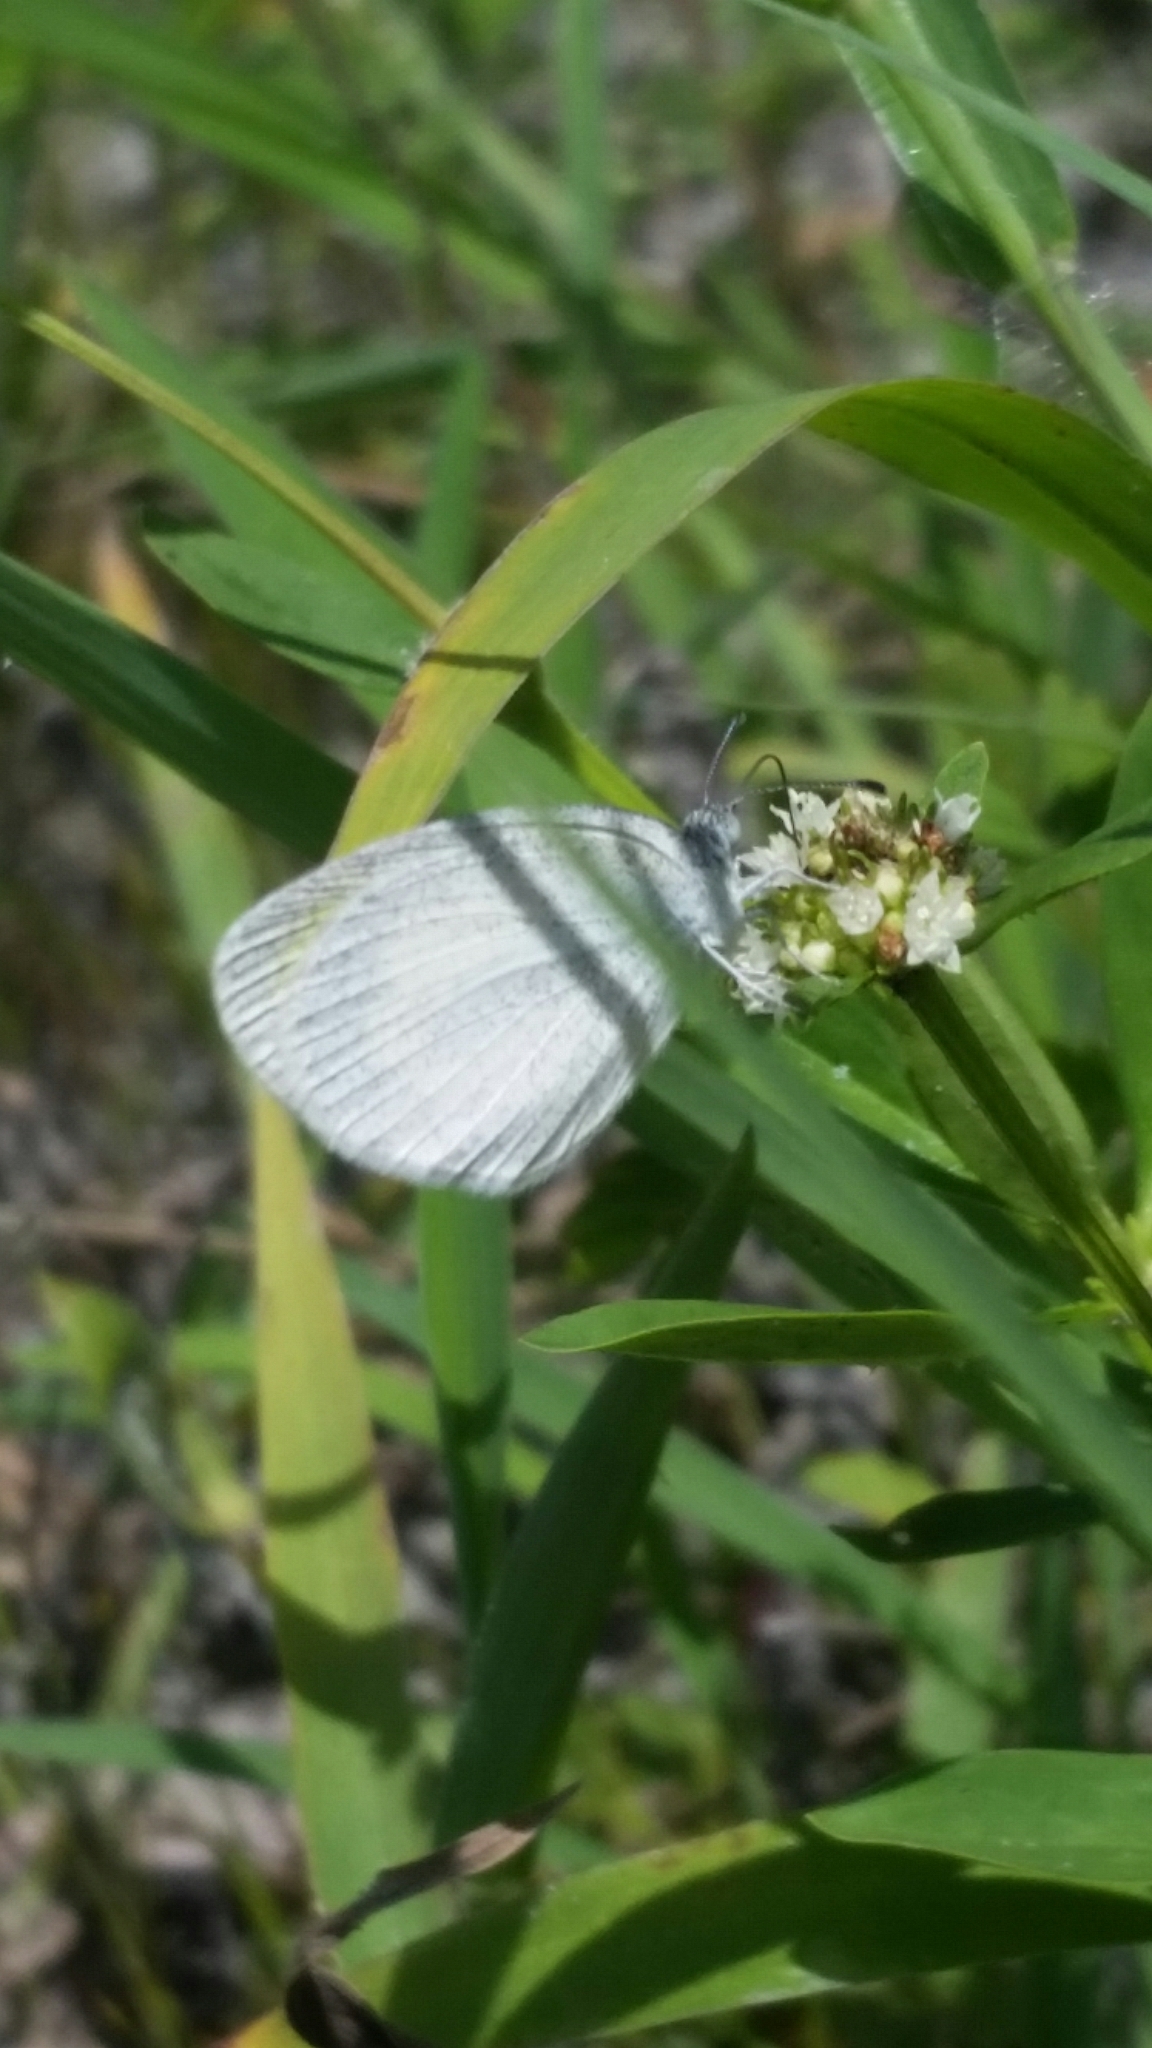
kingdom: Animalia
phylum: Arthropoda
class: Insecta
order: Lepidoptera
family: Pieridae
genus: Eurema
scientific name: Eurema daira
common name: Barred sulphur
